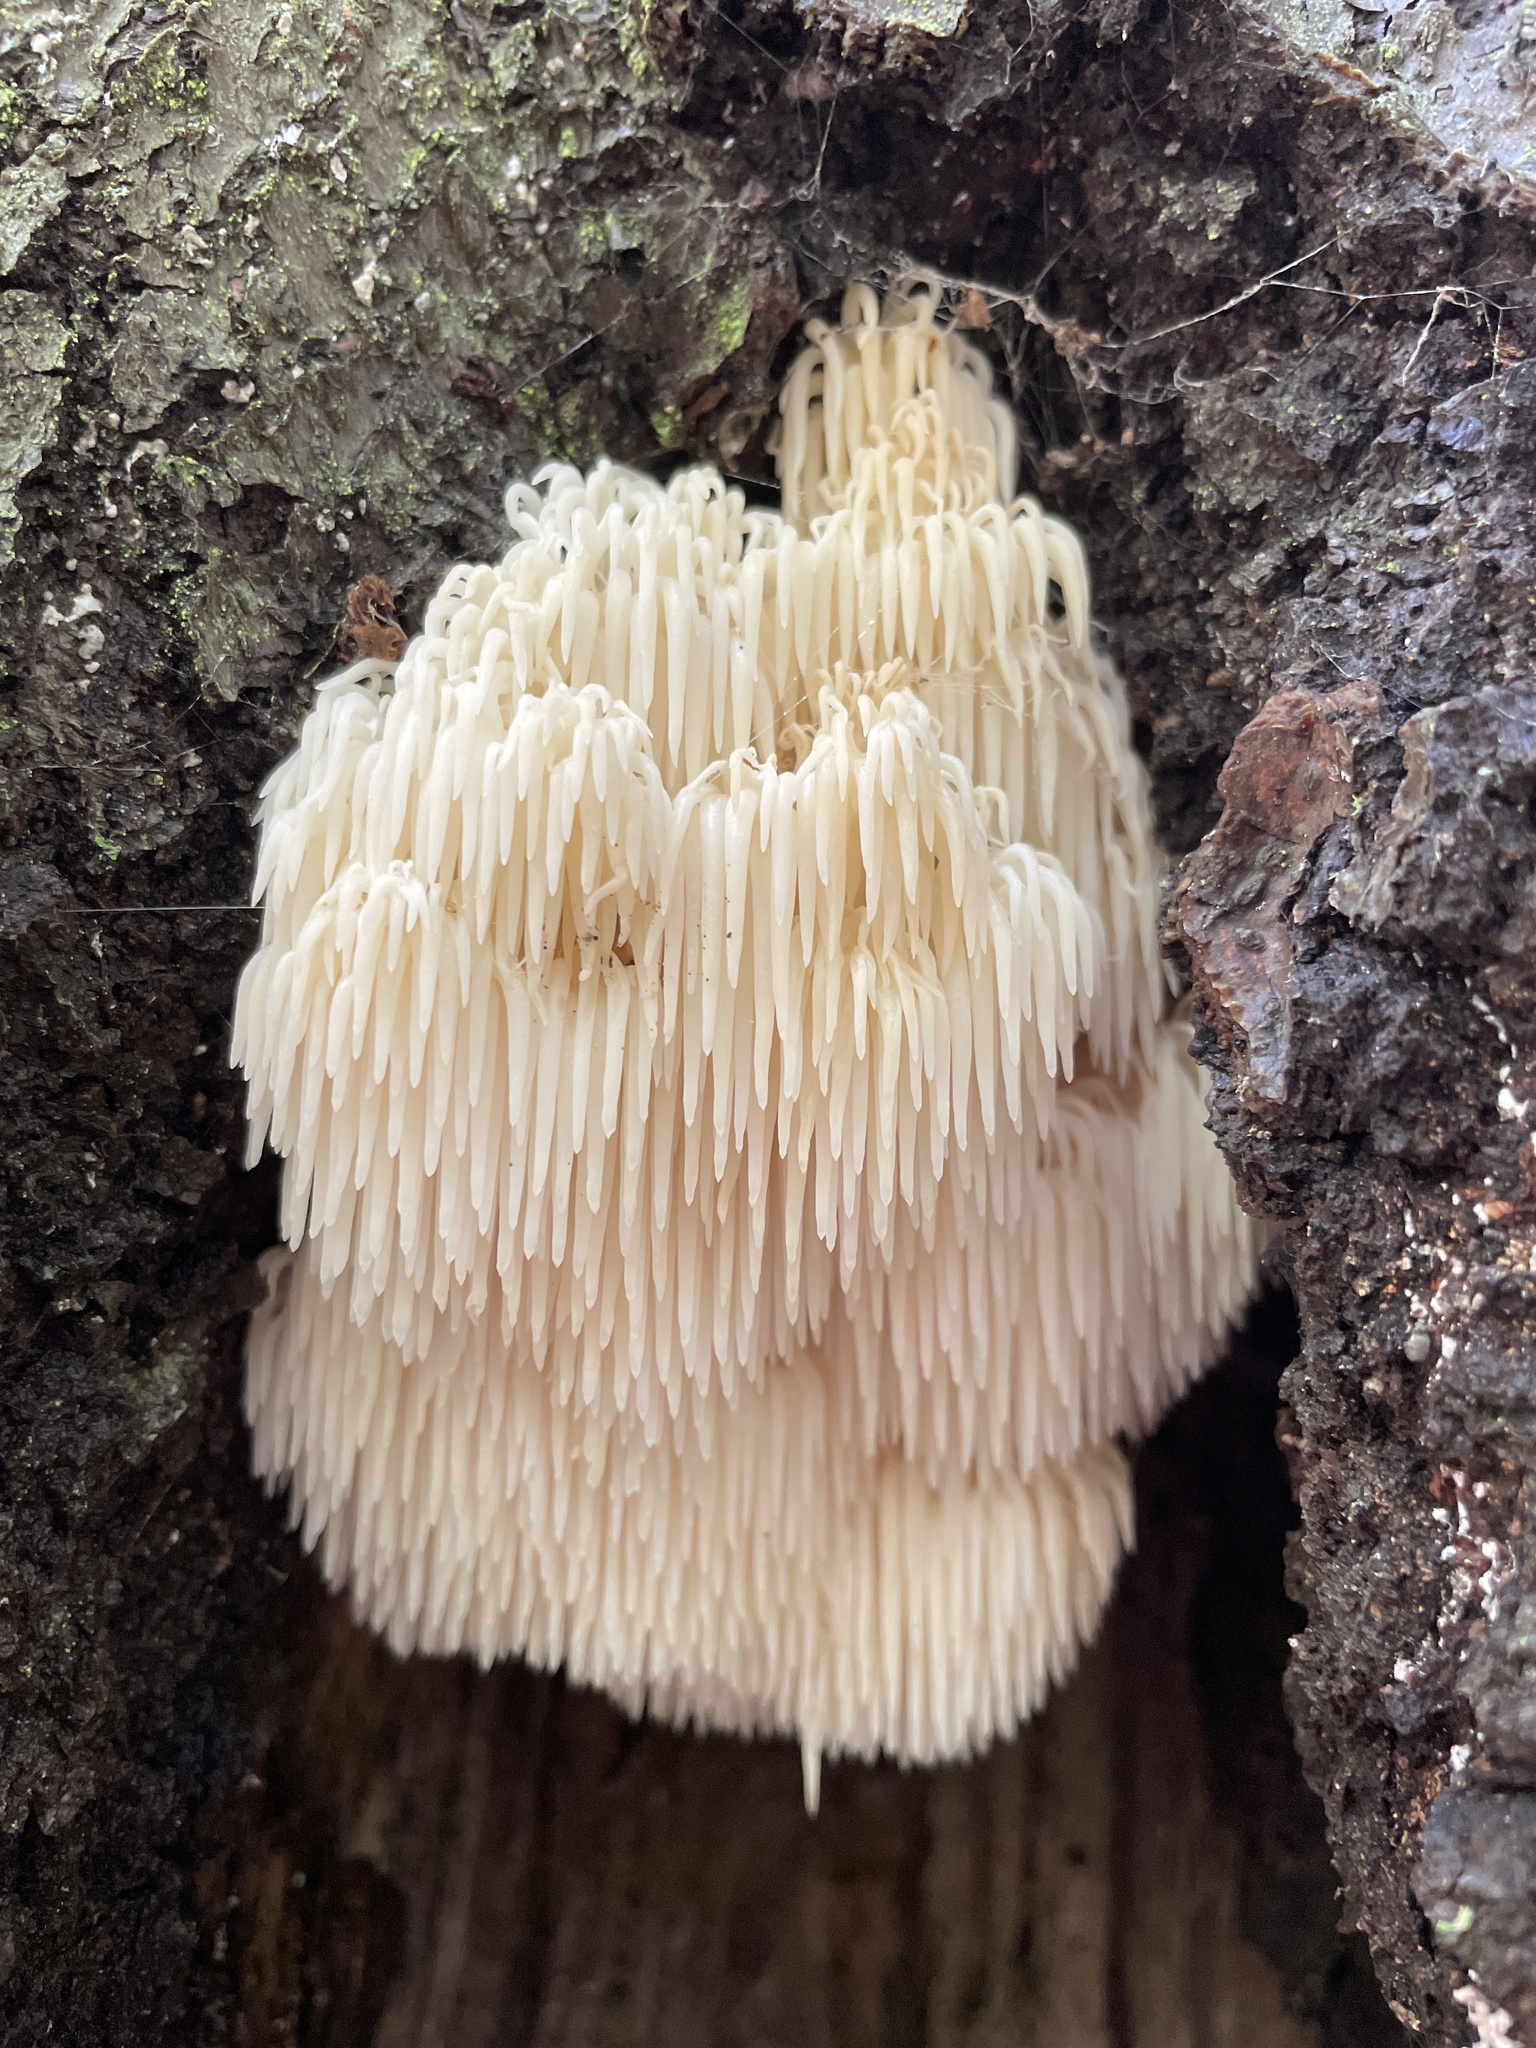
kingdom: Fungi
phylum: Basidiomycota
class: Agaricomycetes
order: Russulales
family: Hericiaceae
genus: Hericium
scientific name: Hericium americanum
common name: Bear's head tooth
